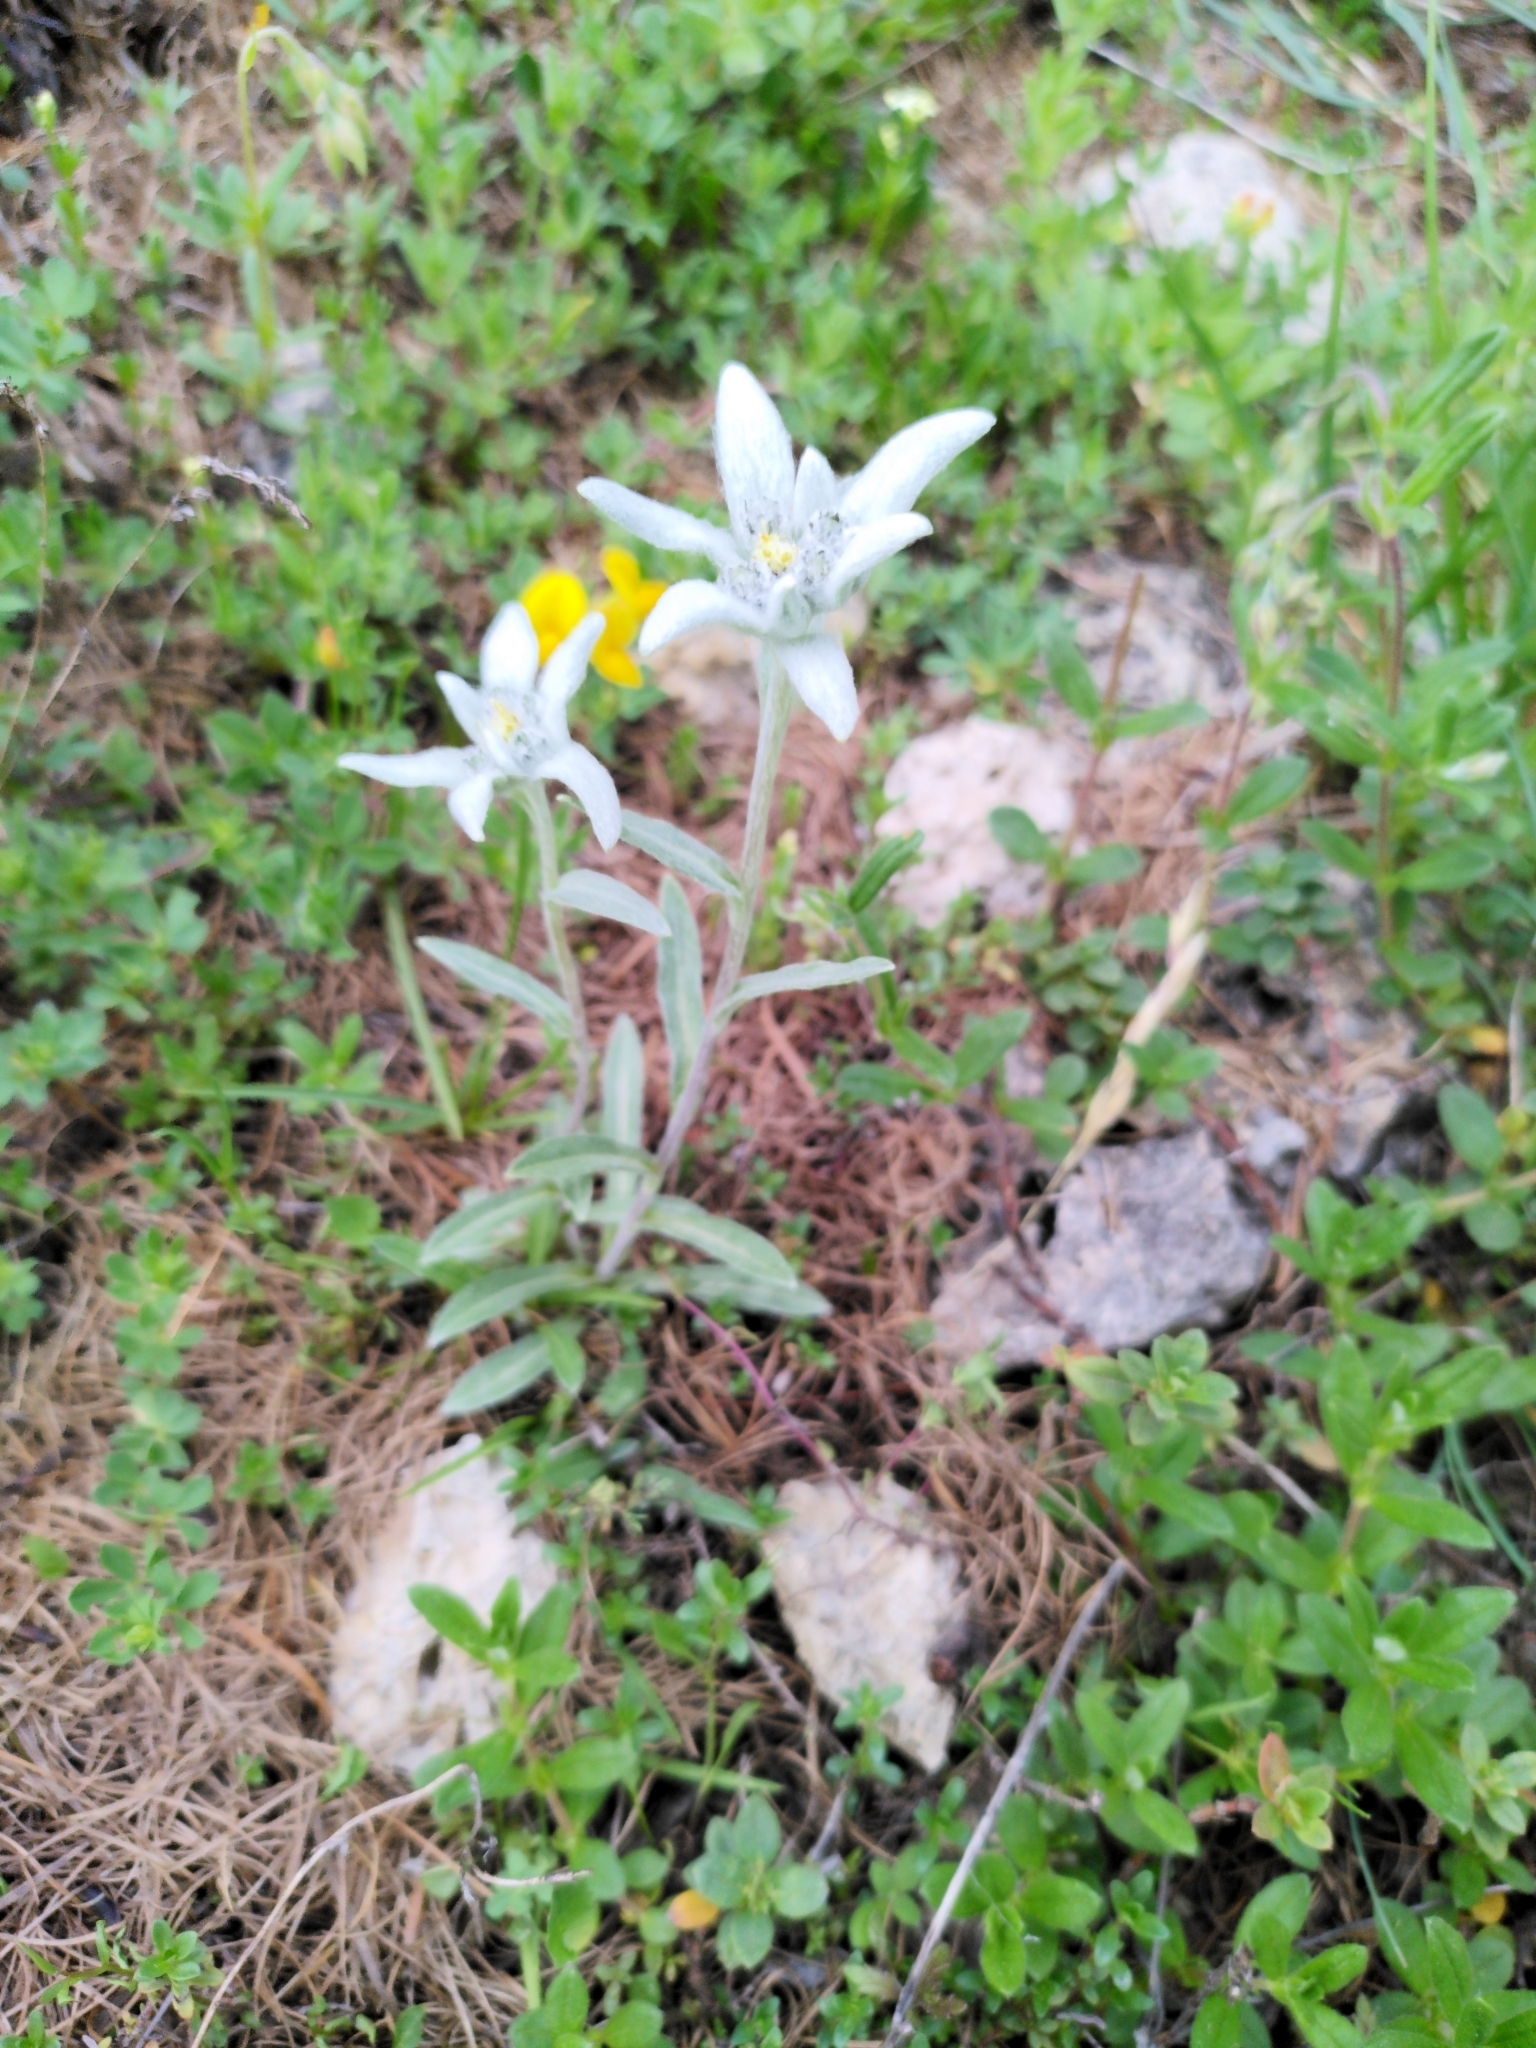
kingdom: Plantae
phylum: Tracheophyta
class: Magnoliopsida
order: Asterales
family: Asteraceae
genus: Leontopodium
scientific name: Leontopodium nivale
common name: Edelweiss
